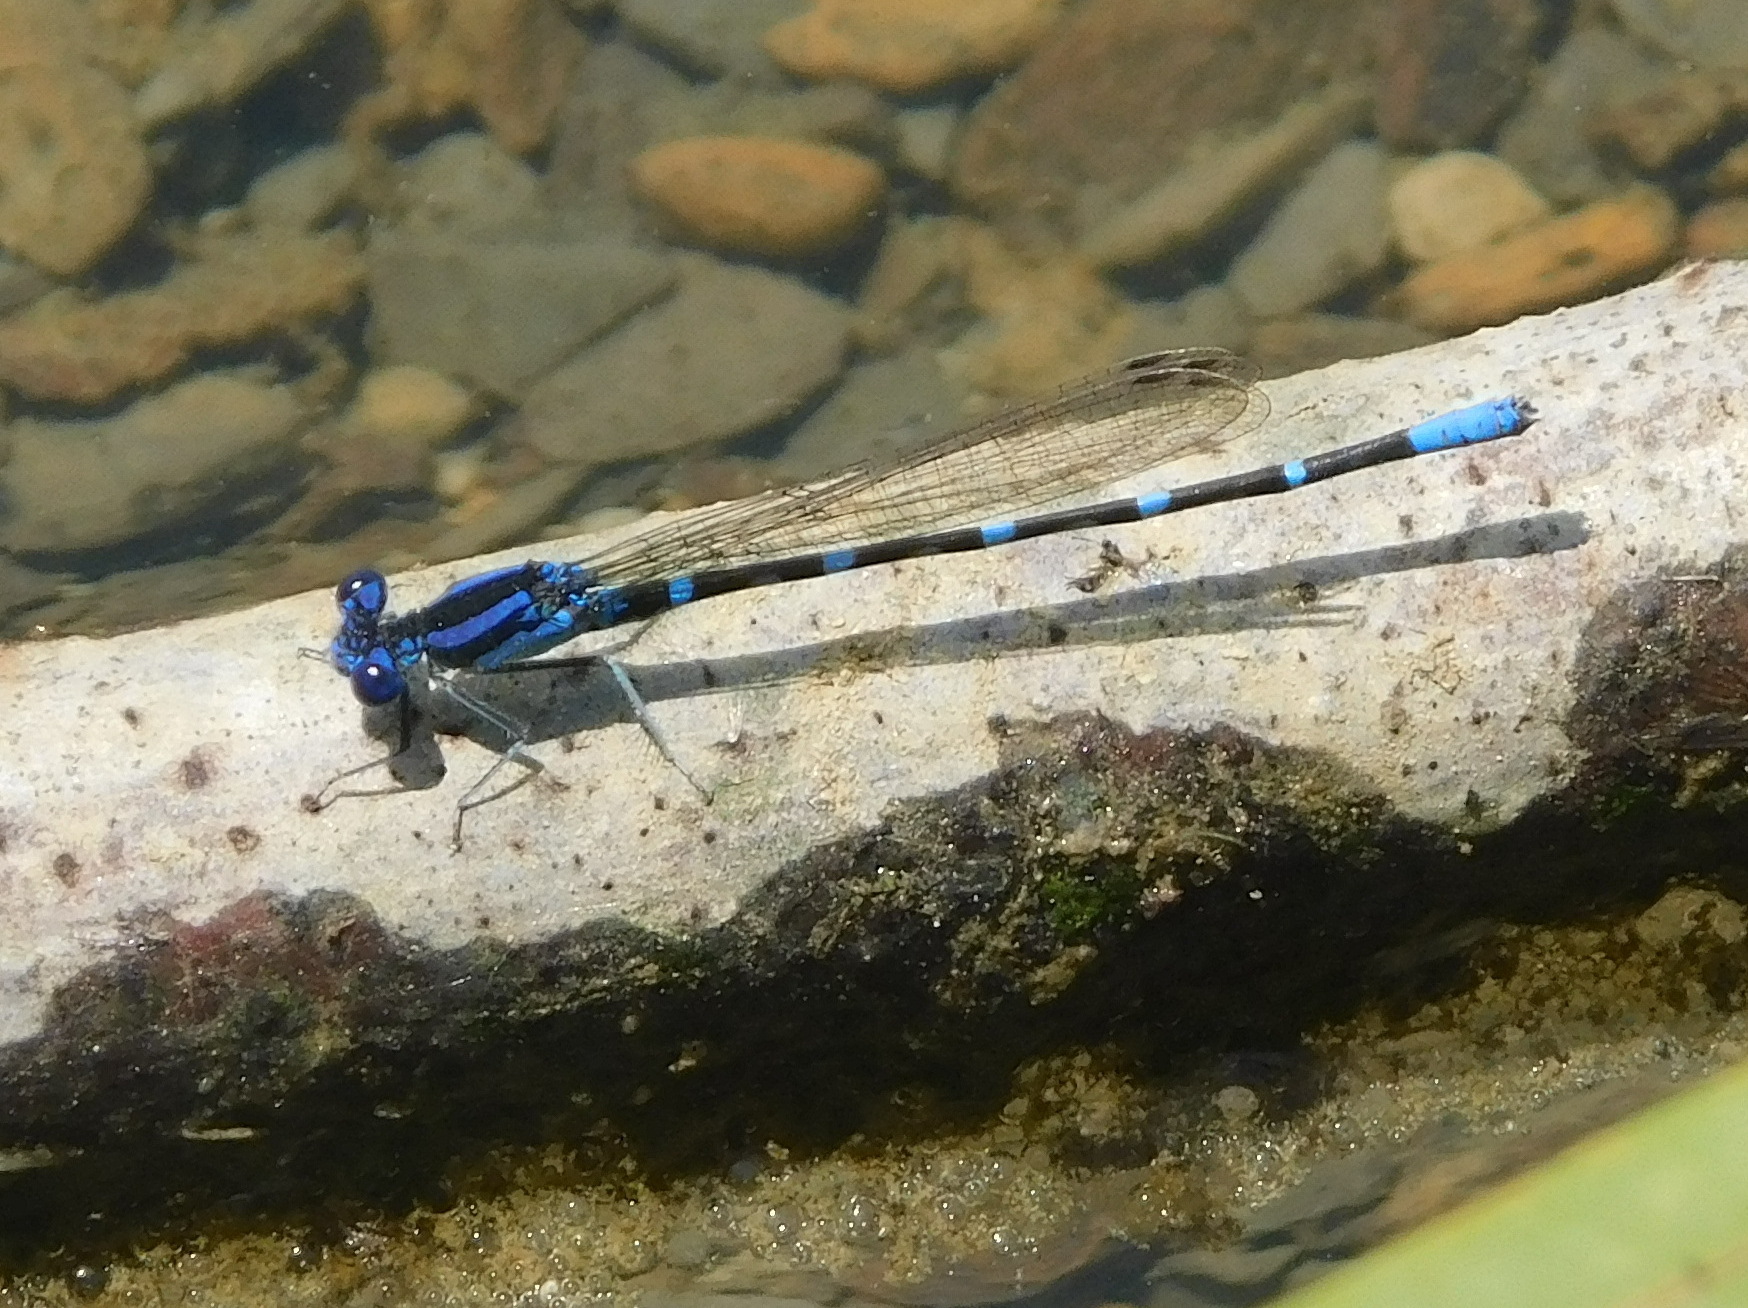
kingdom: Animalia
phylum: Arthropoda
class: Insecta
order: Odonata
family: Coenagrionidae
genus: Argia
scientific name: Argia sedula
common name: Blue-ringed dancer
